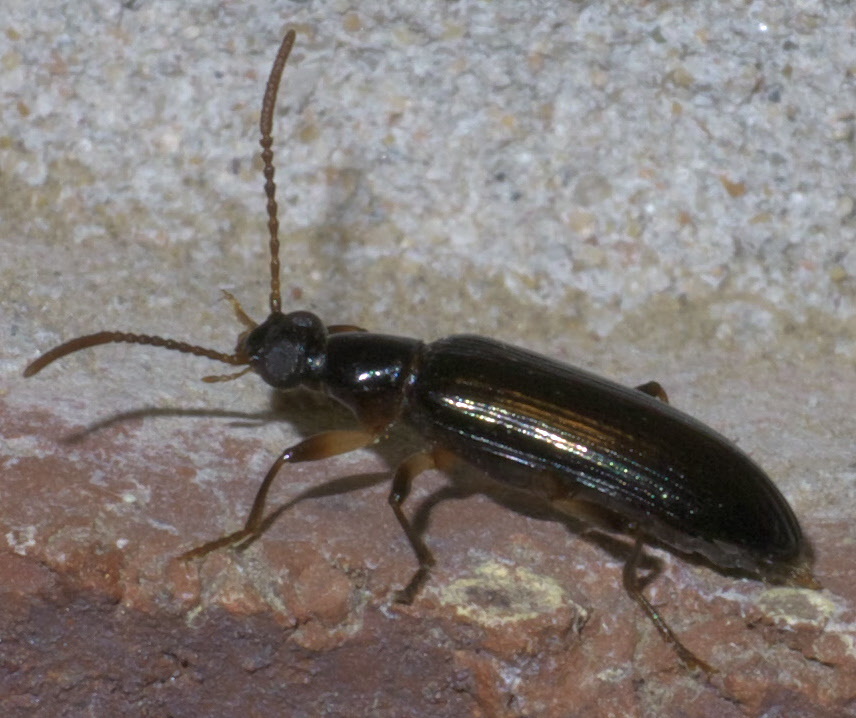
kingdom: Animalia
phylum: Arthropoda
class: Insecta
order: Coleoptera
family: Tenebrionidae
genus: Statira
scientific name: Statira basalis
